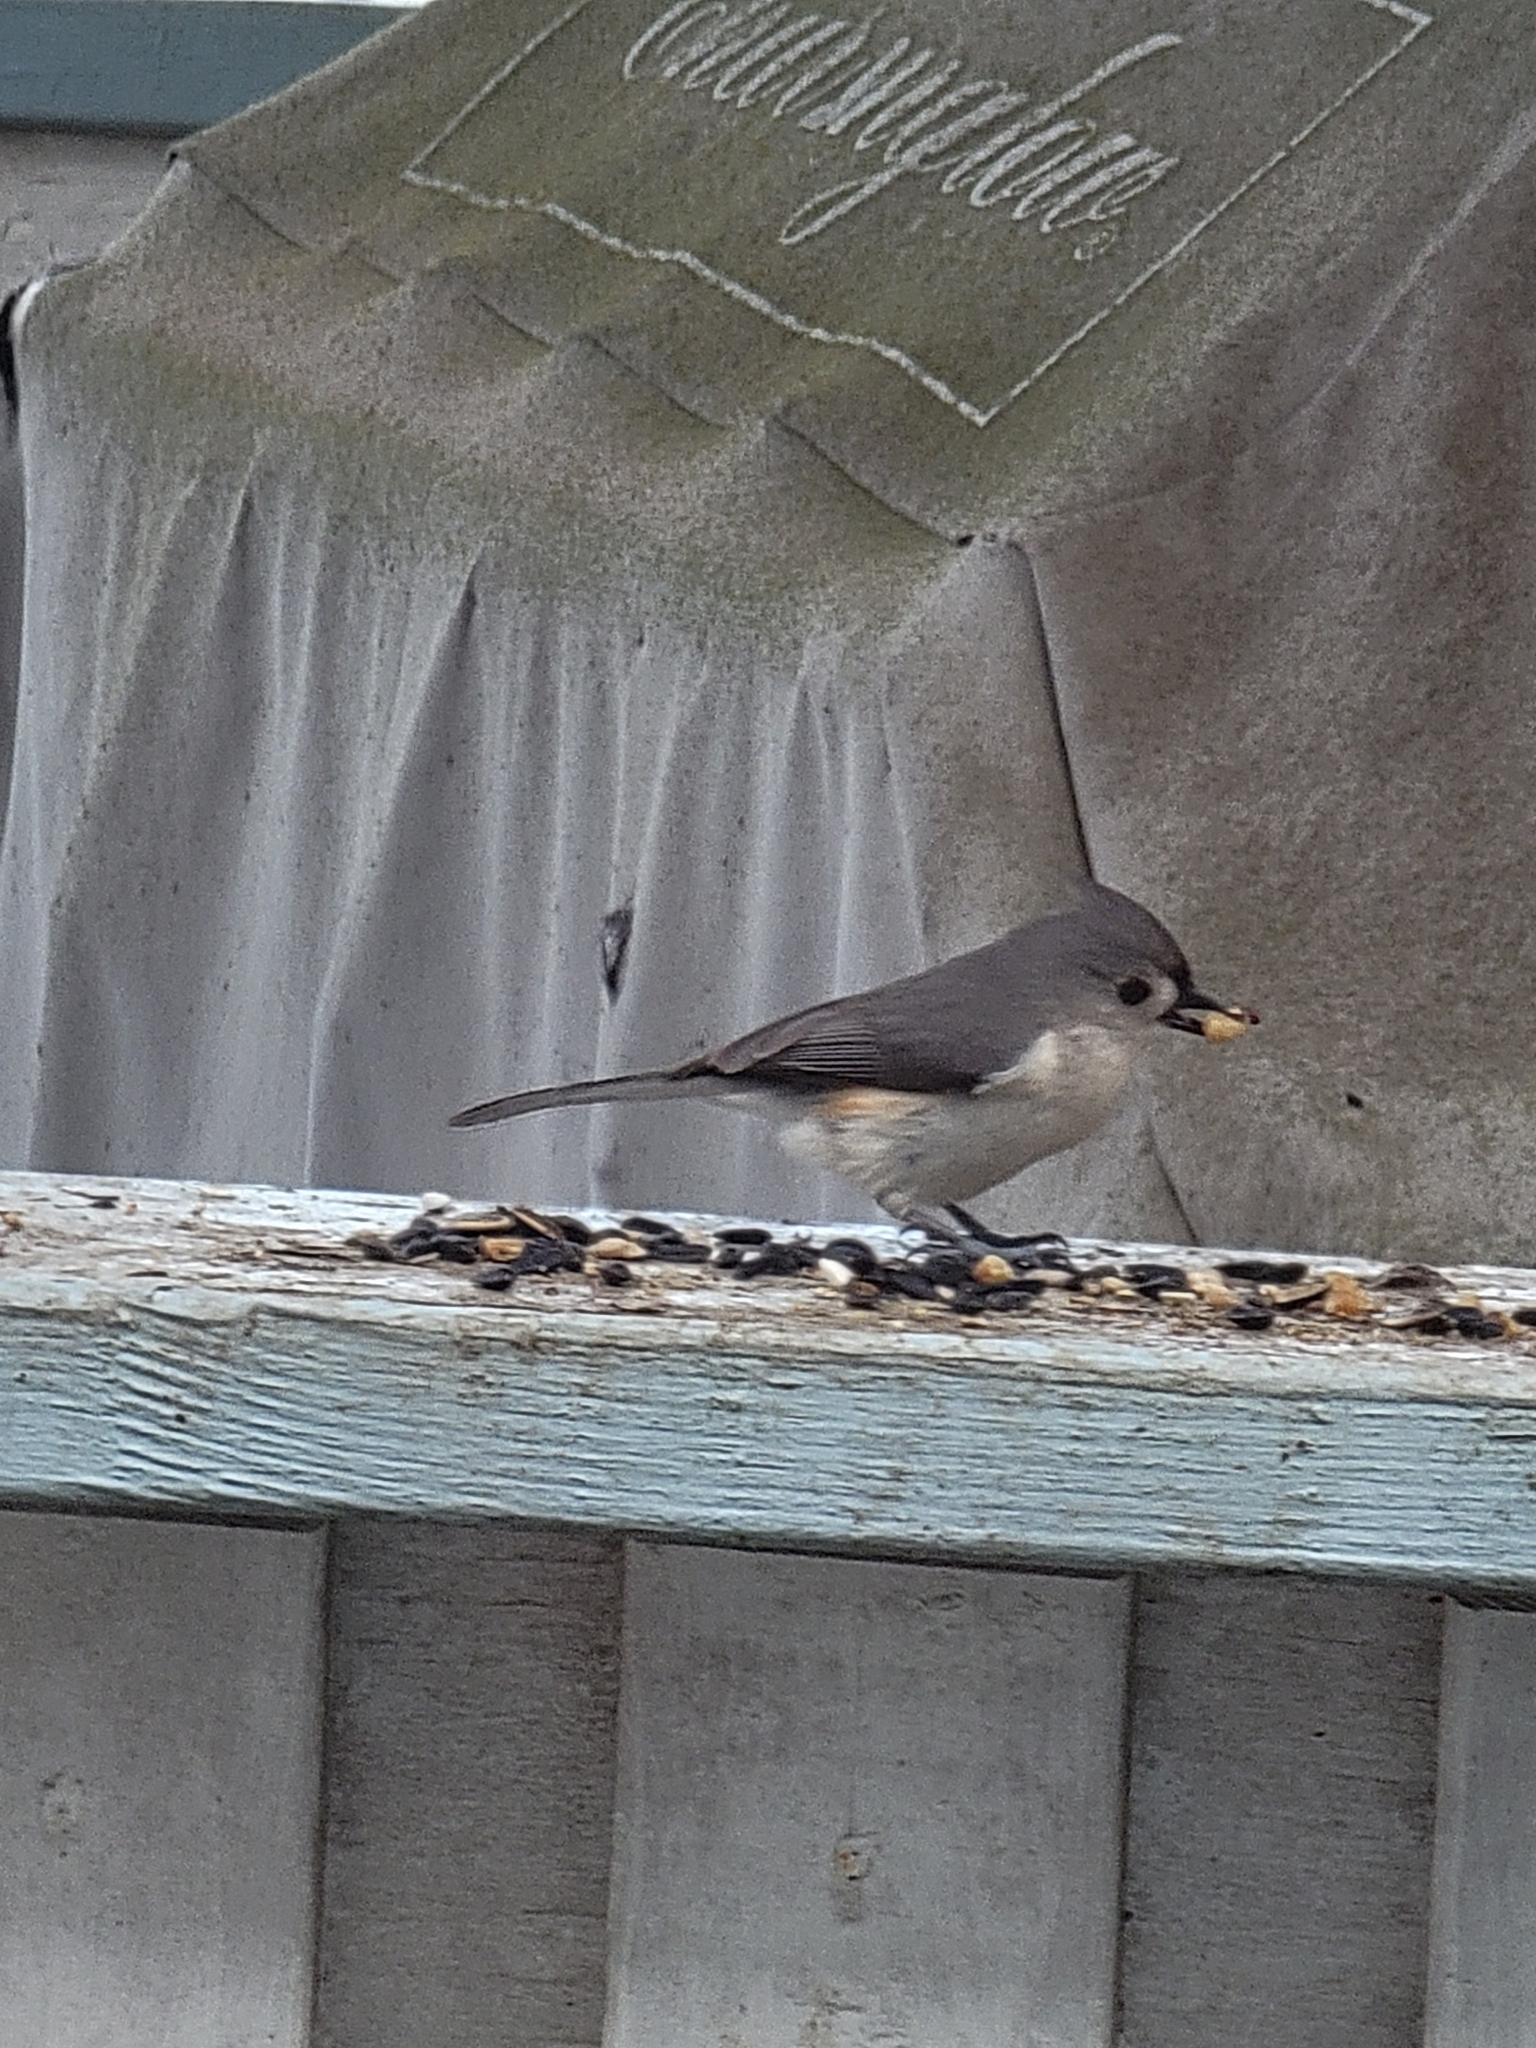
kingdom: Animalia
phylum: Chordata
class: Aves
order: Passeriformes
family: Paridae
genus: Baeolophus
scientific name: Baeolophus bicolor
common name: Tufted titmouse
